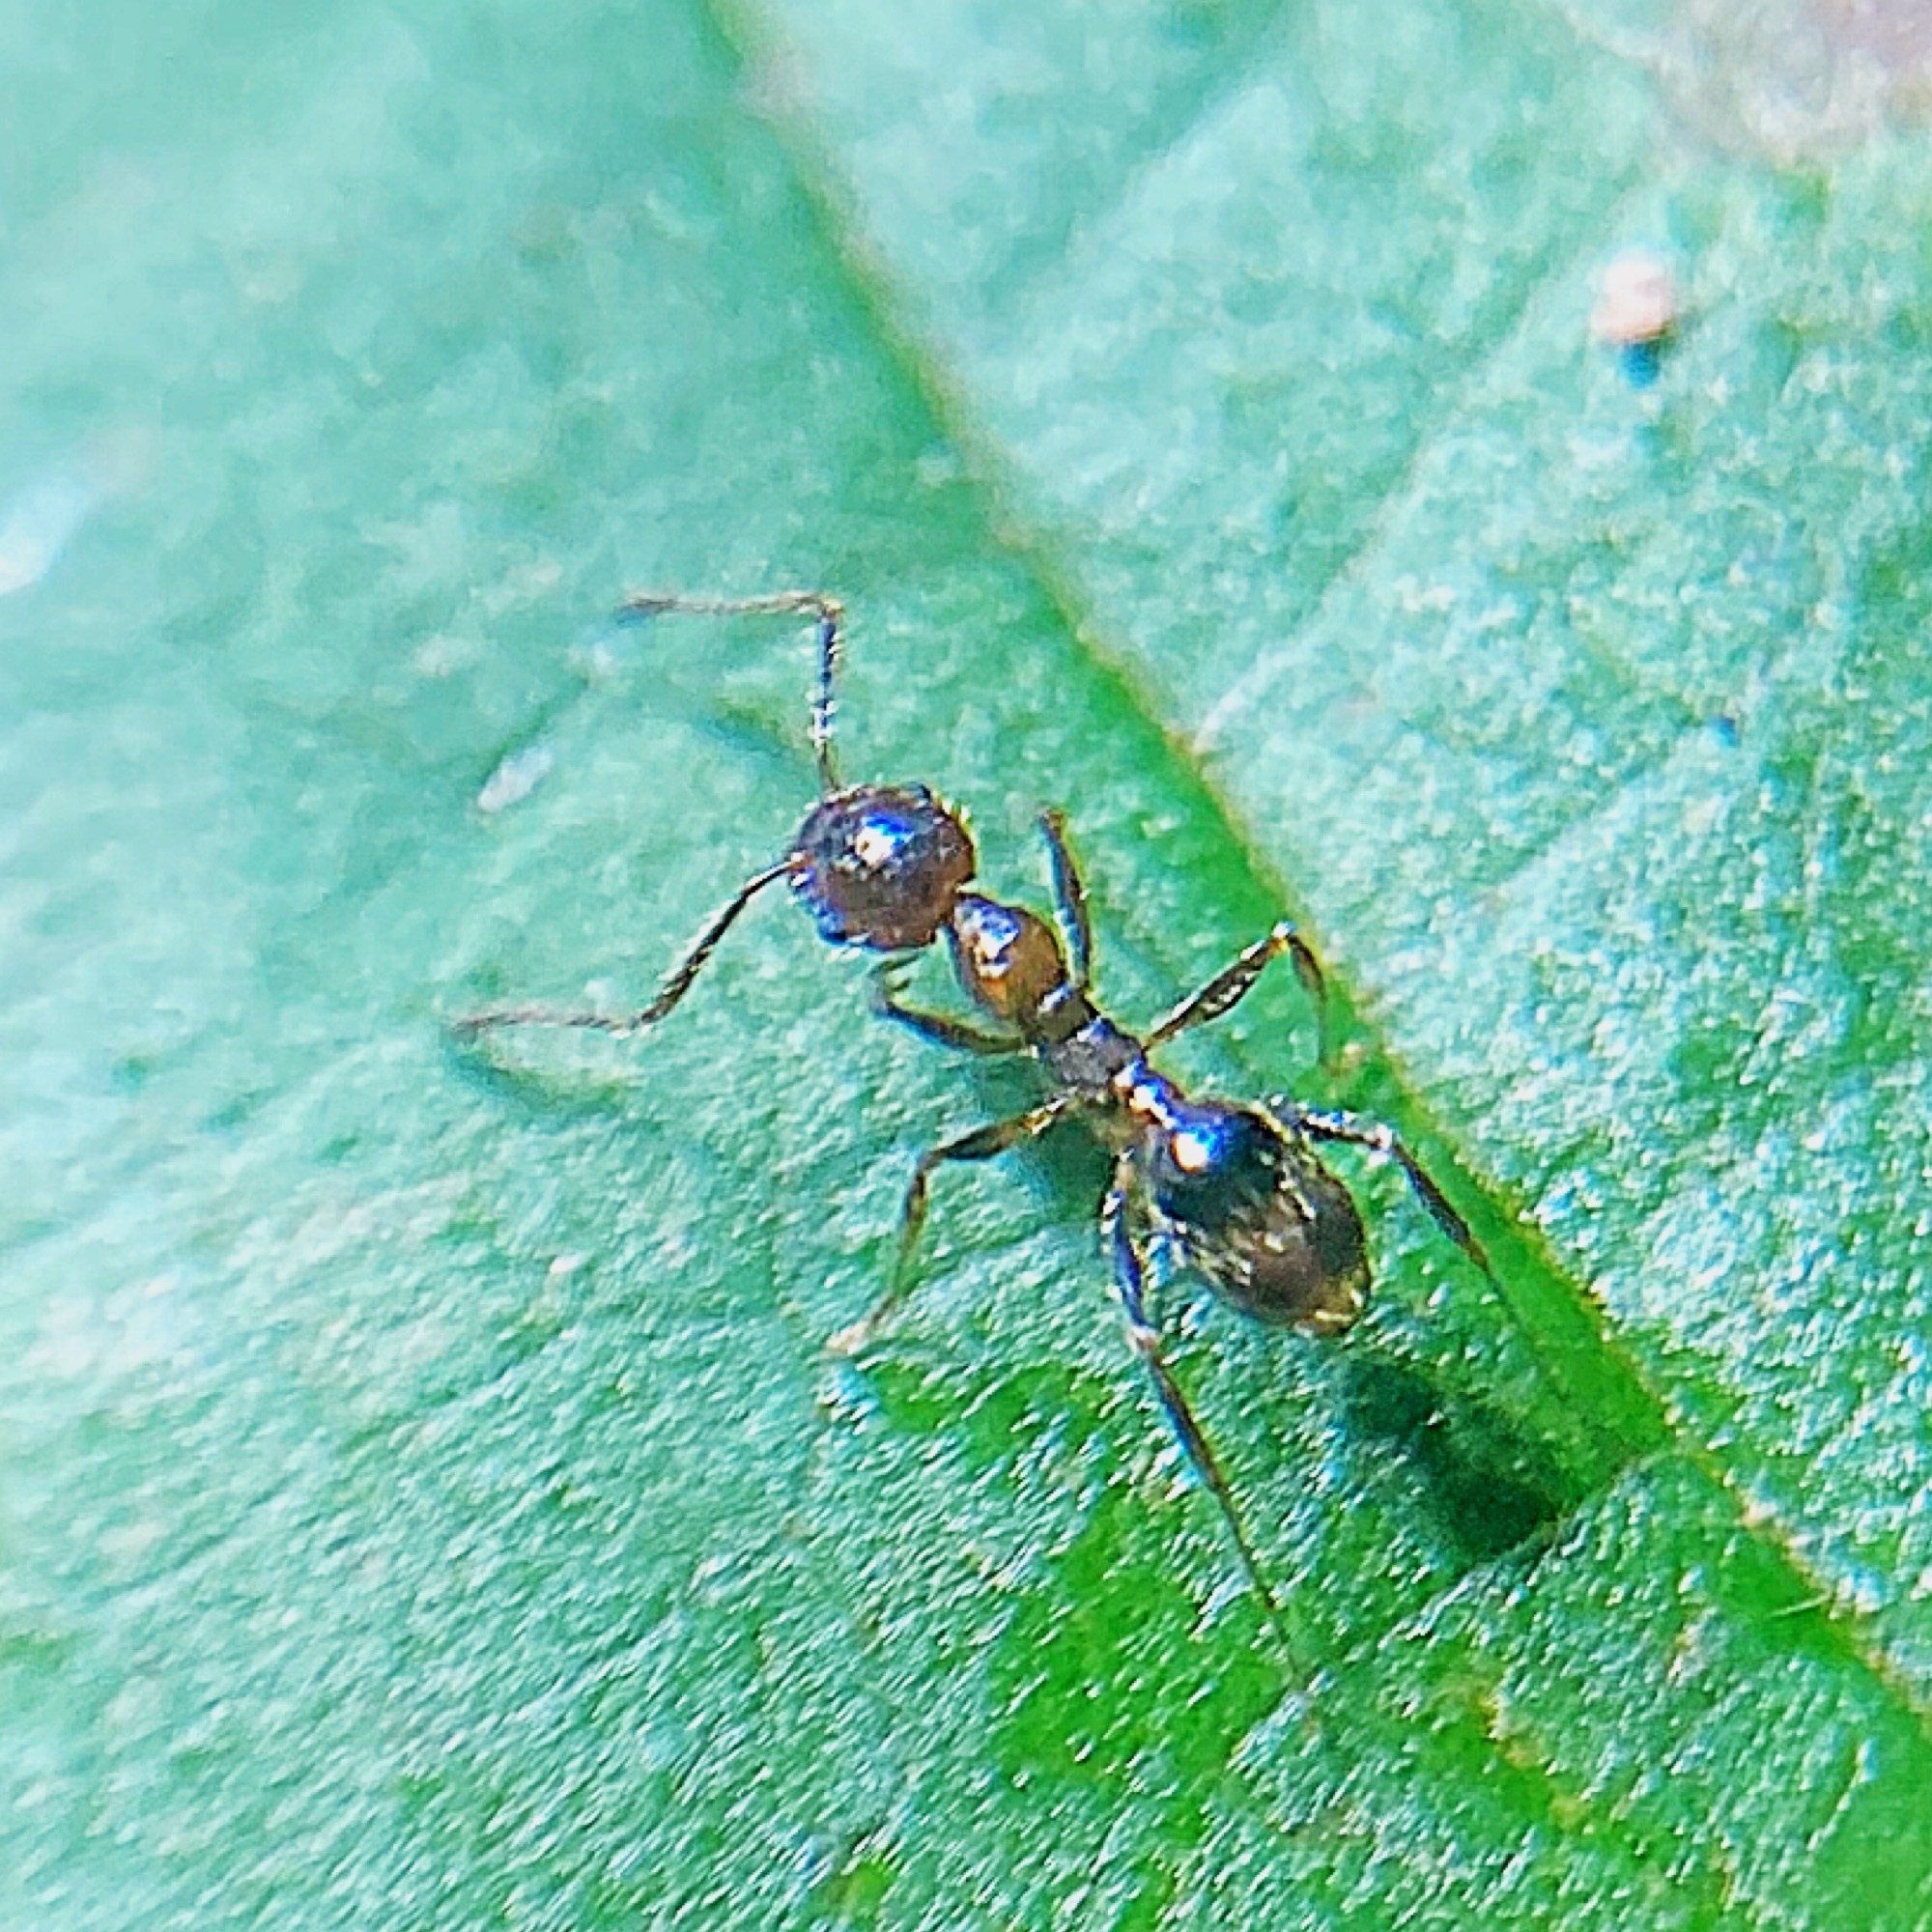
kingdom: Animalia
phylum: Arthropoda
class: Insecta
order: Hymenoptera
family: Formicidae
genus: Pheidole
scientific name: Pheidole dentata
